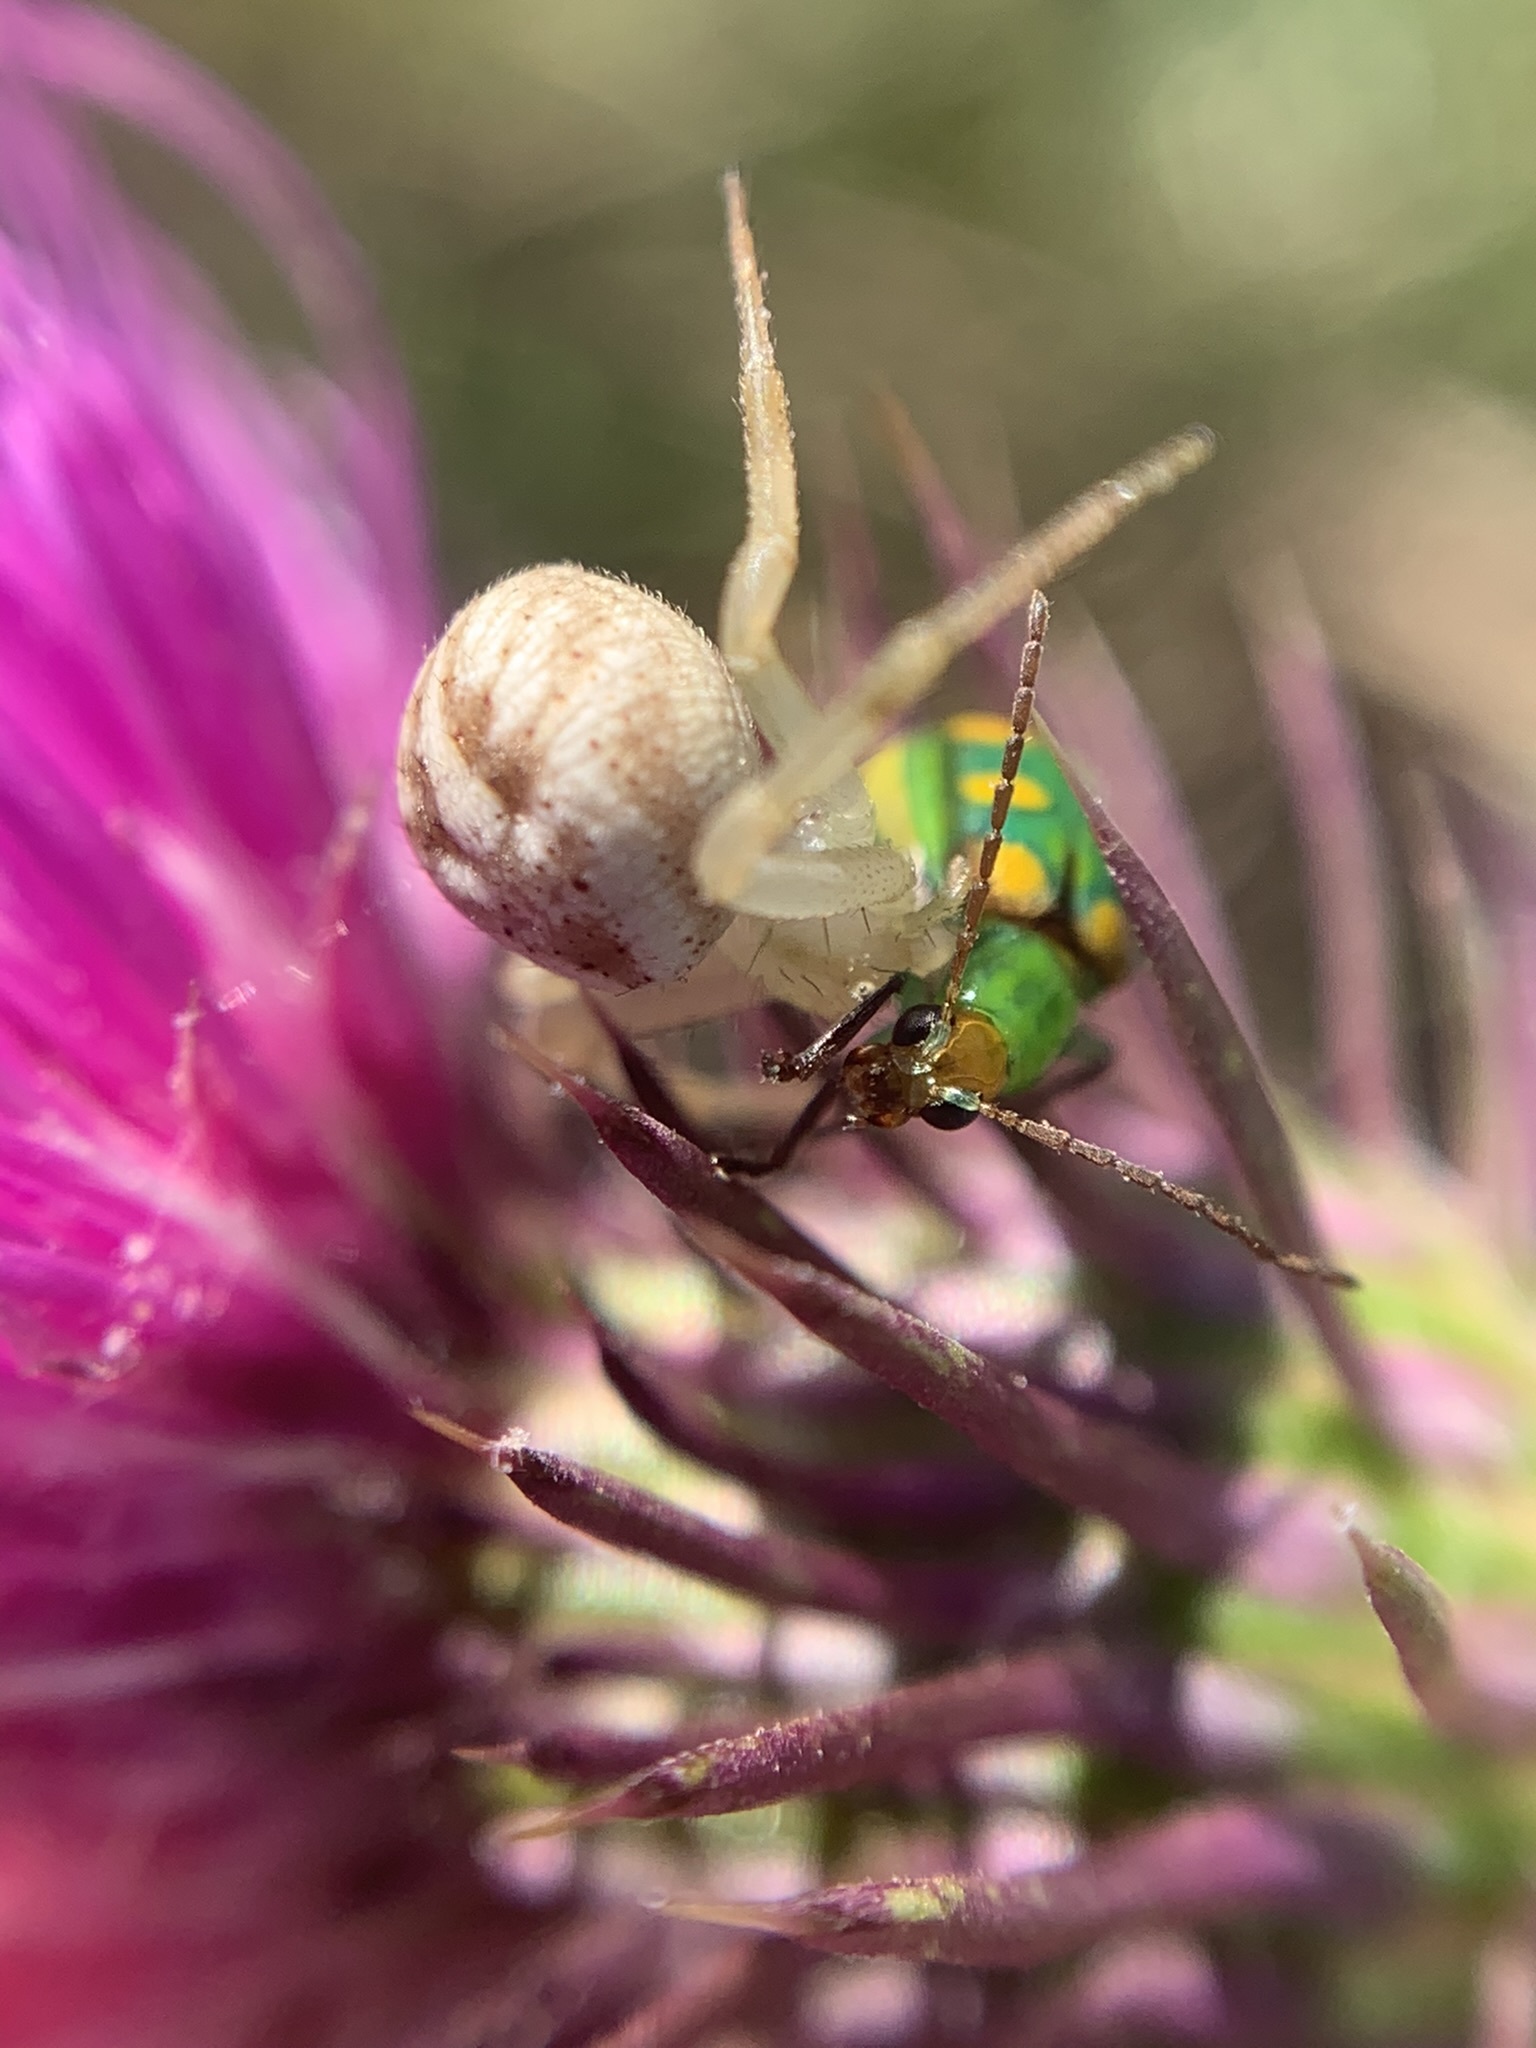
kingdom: Animalia
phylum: Arthropoda
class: Insecta
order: Coleoptera
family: Chrysomelidae
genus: Diabrotica
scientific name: Diabrotica speciosa
